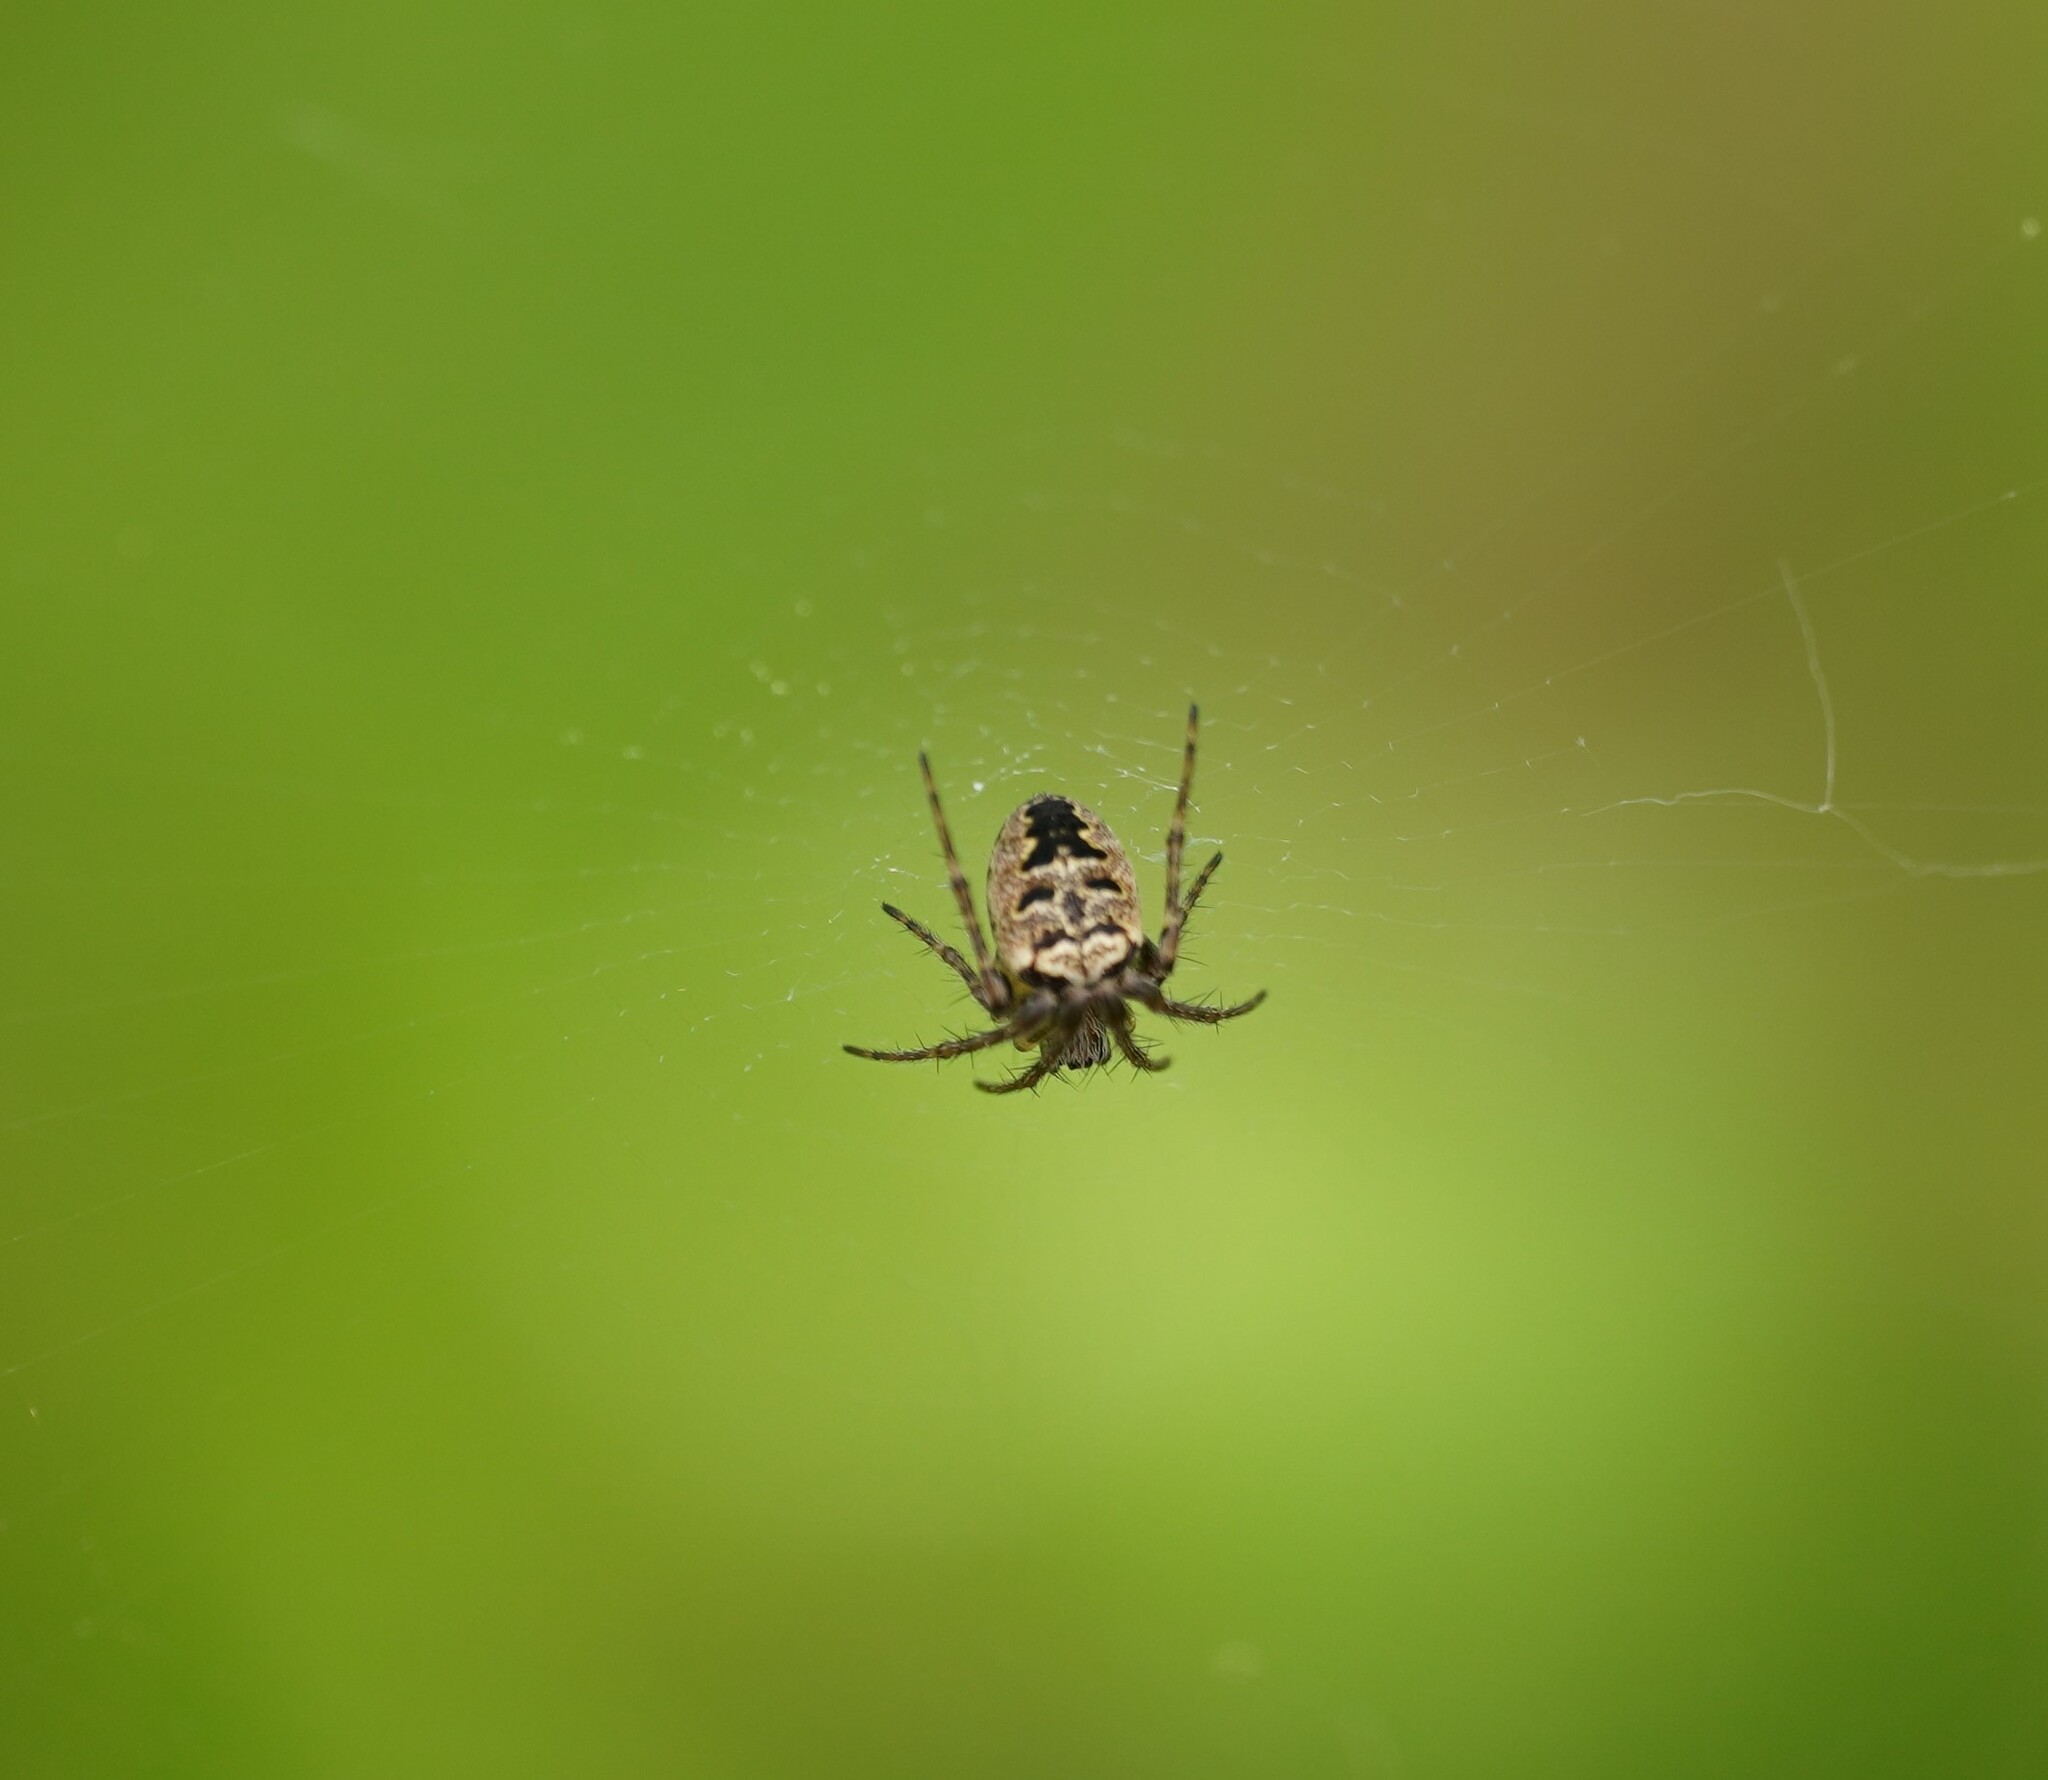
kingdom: Animalia
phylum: Arthropoda
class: Arachnida
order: Araneae
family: Araneidae
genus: Zilla
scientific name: Zilla diodia
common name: Zilla diodia
